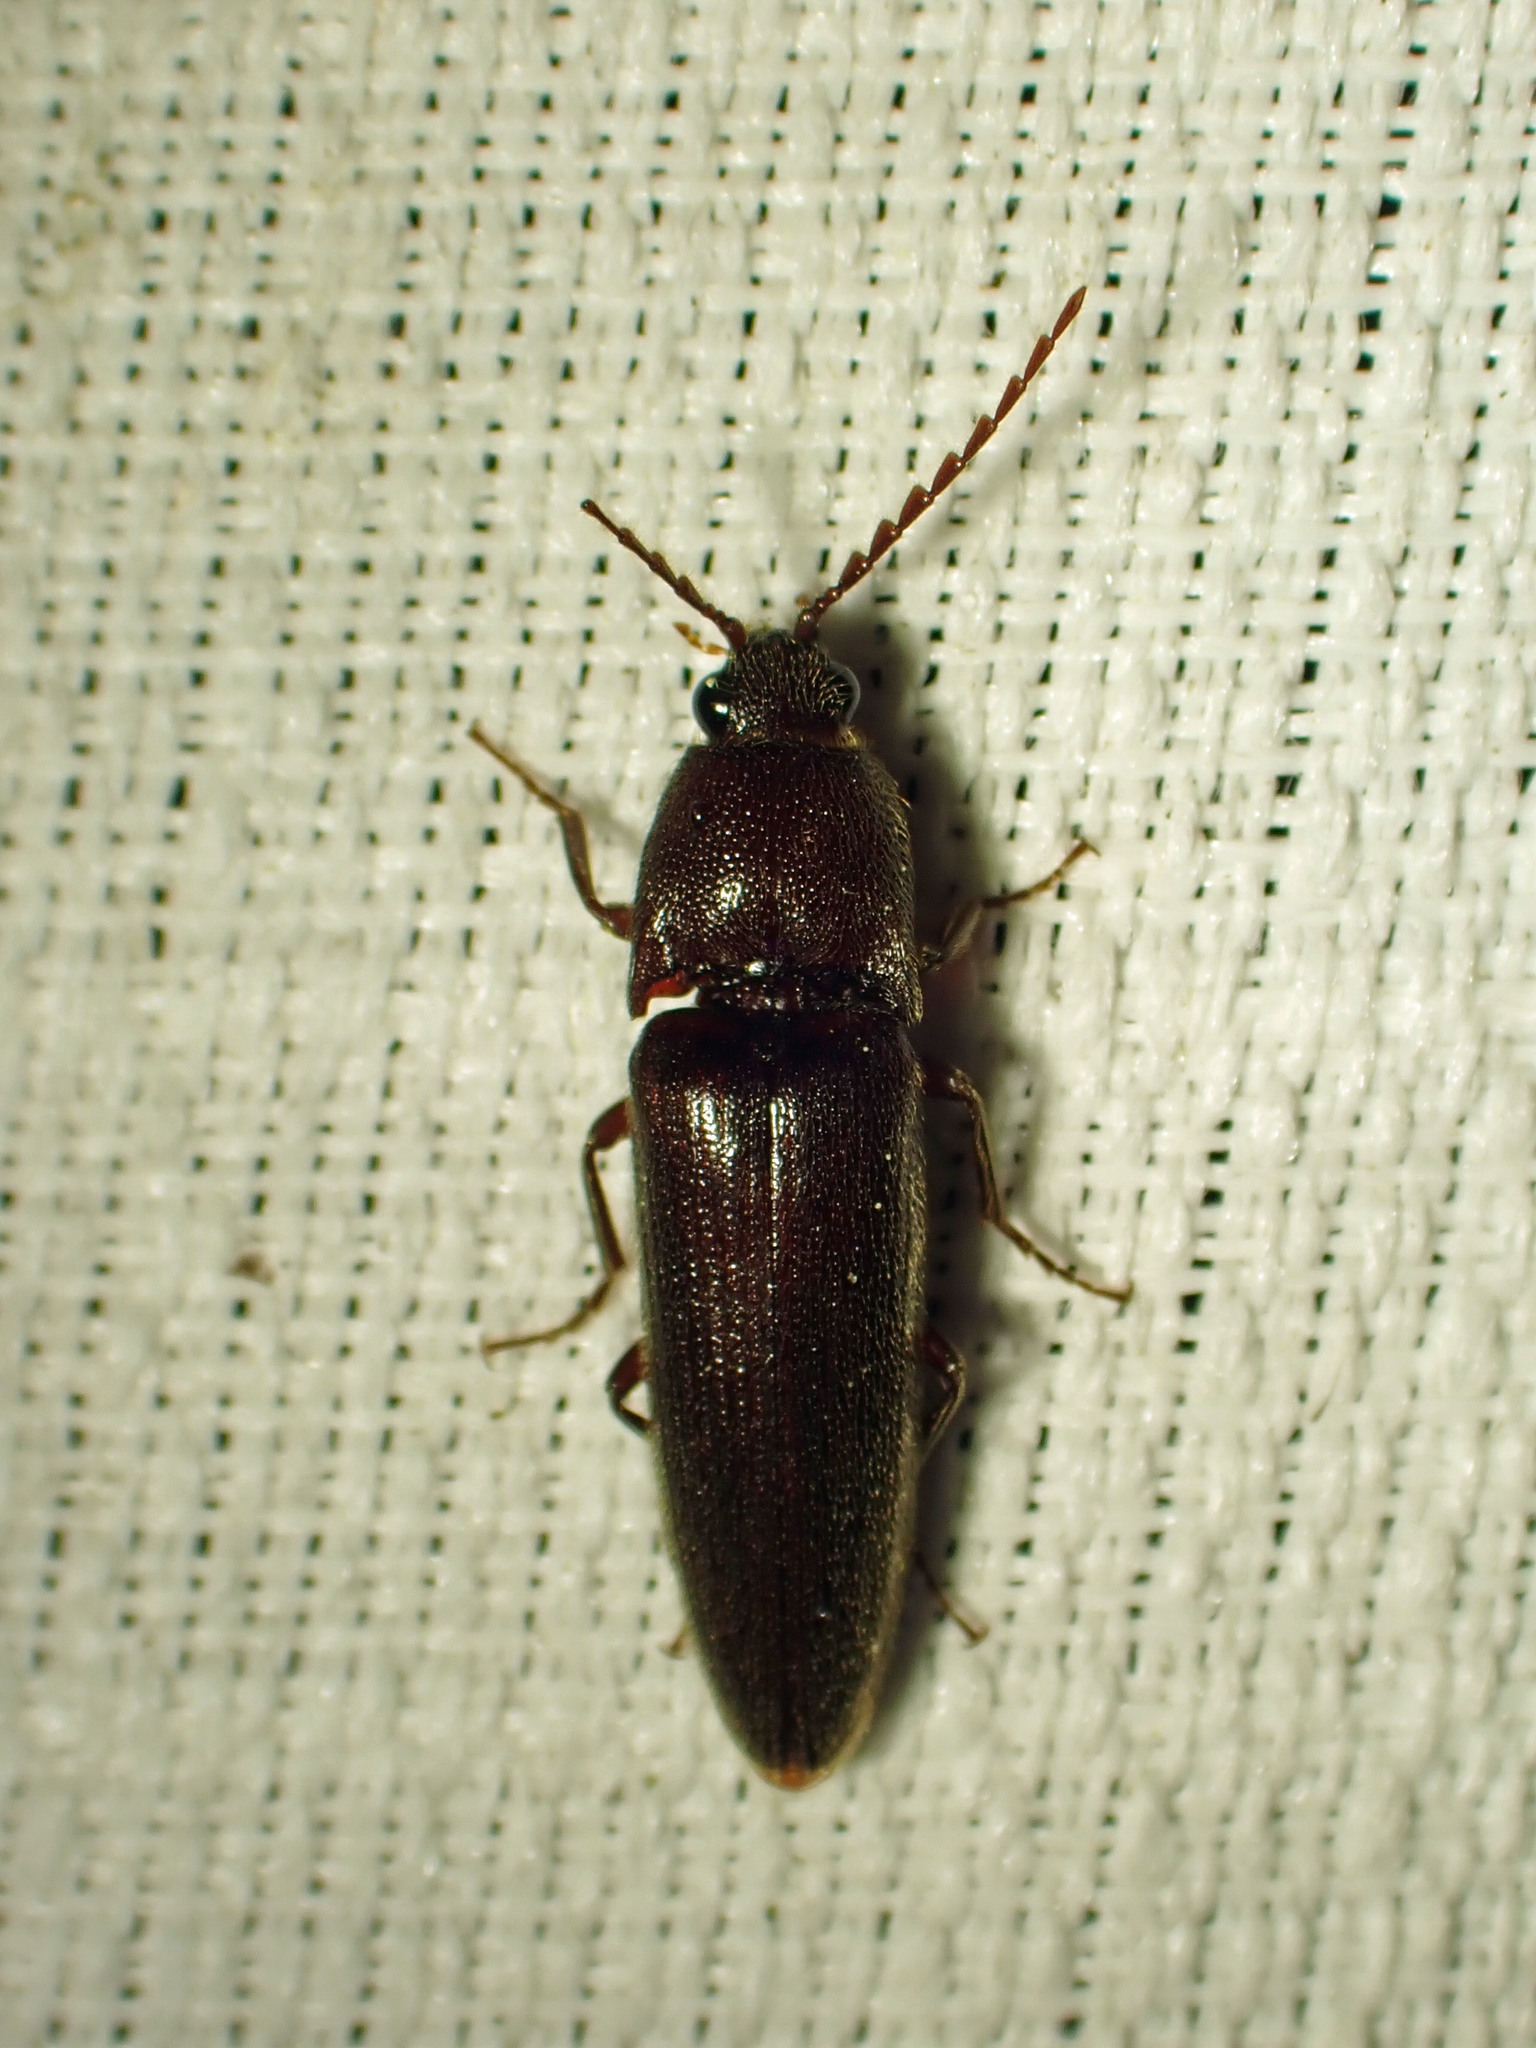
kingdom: Animalia
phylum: Arthropoda
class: Insecta
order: Coleoptera
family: Elateridae
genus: Melanotus
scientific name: Melanotus castanipes
